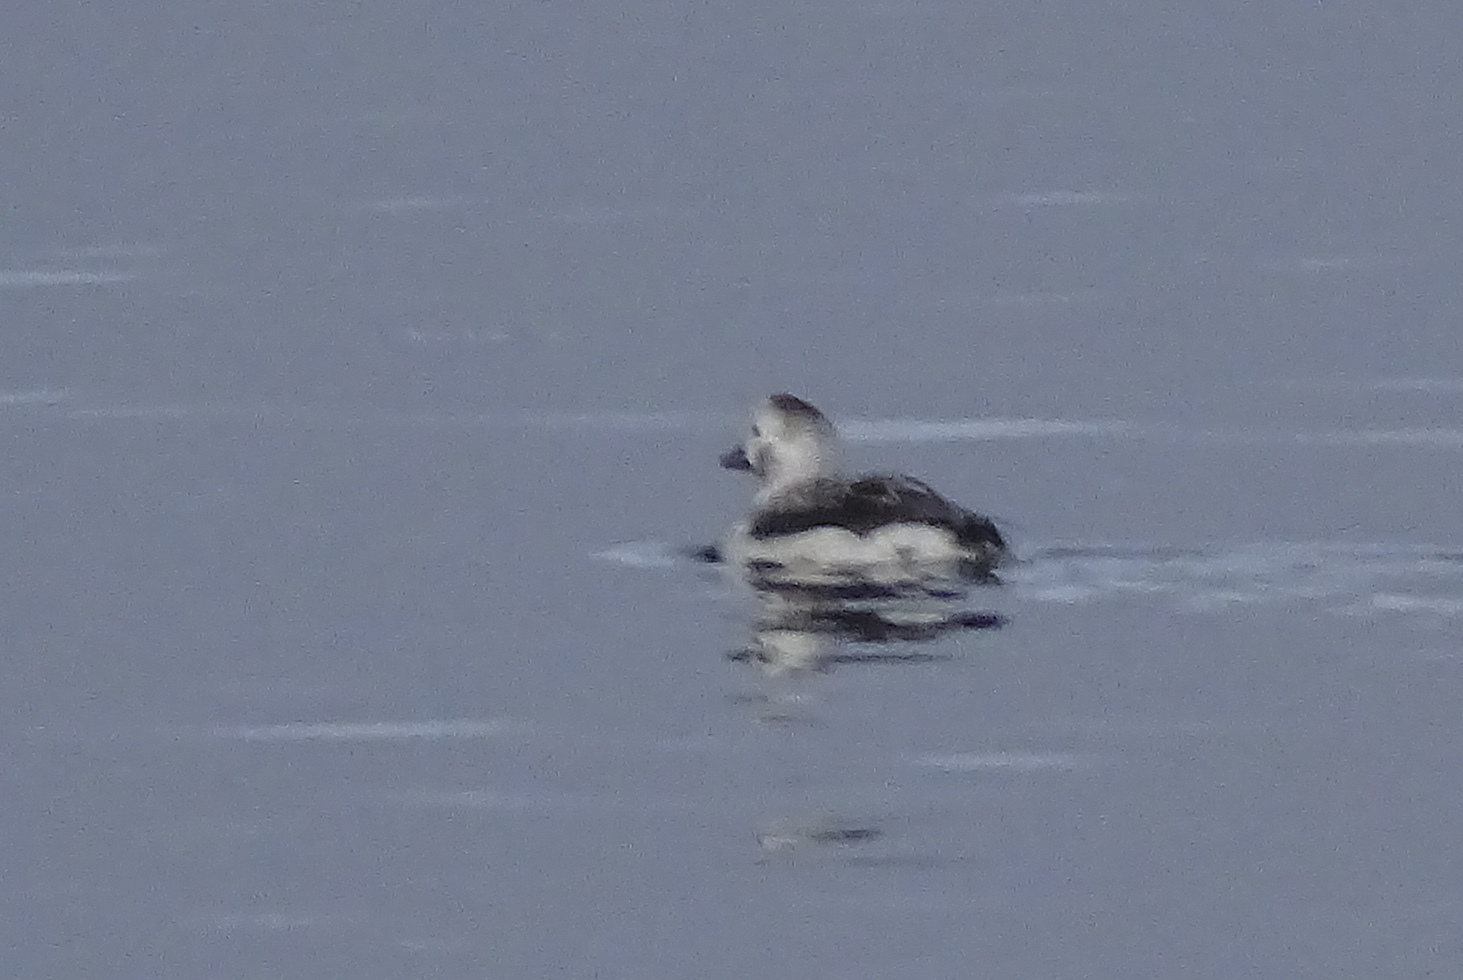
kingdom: Animalia
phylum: Chordata
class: Aves
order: Anseriformes
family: Anatidae
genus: Clangula
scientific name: Clangula hyemalis
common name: Long-tailed duck
